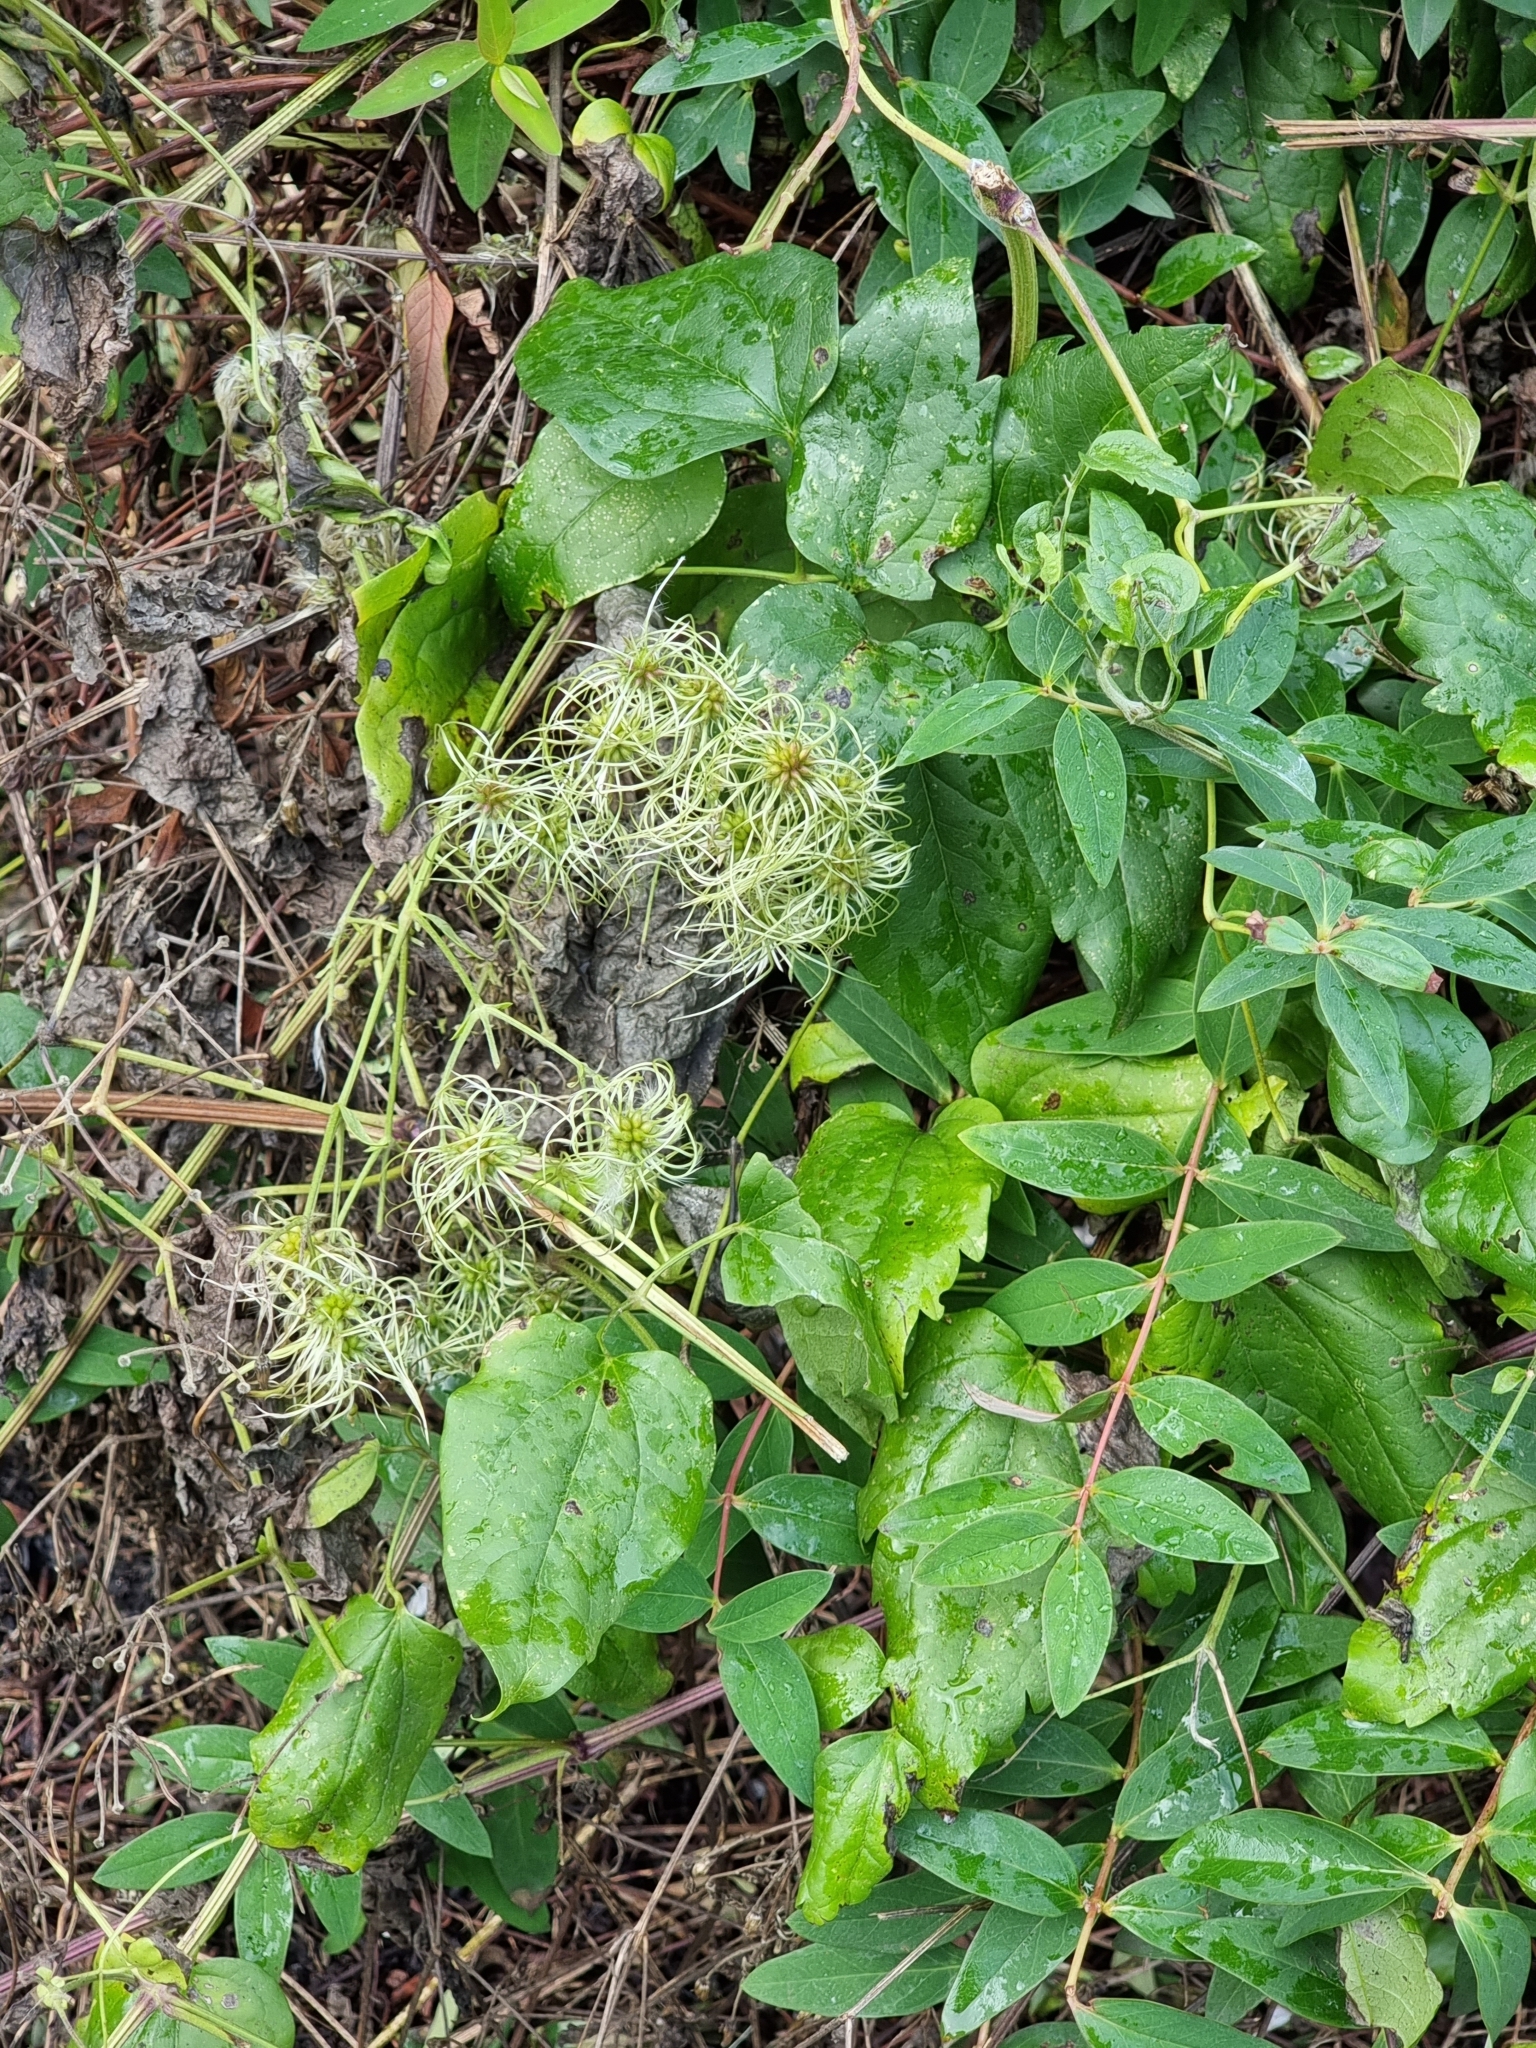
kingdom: Plantae
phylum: Tracheophyta
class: Magnoliopsida
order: Ranunculales
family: Ranunculaceae
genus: Clematis
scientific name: Clematis vitalba
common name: Evergreen clematis
